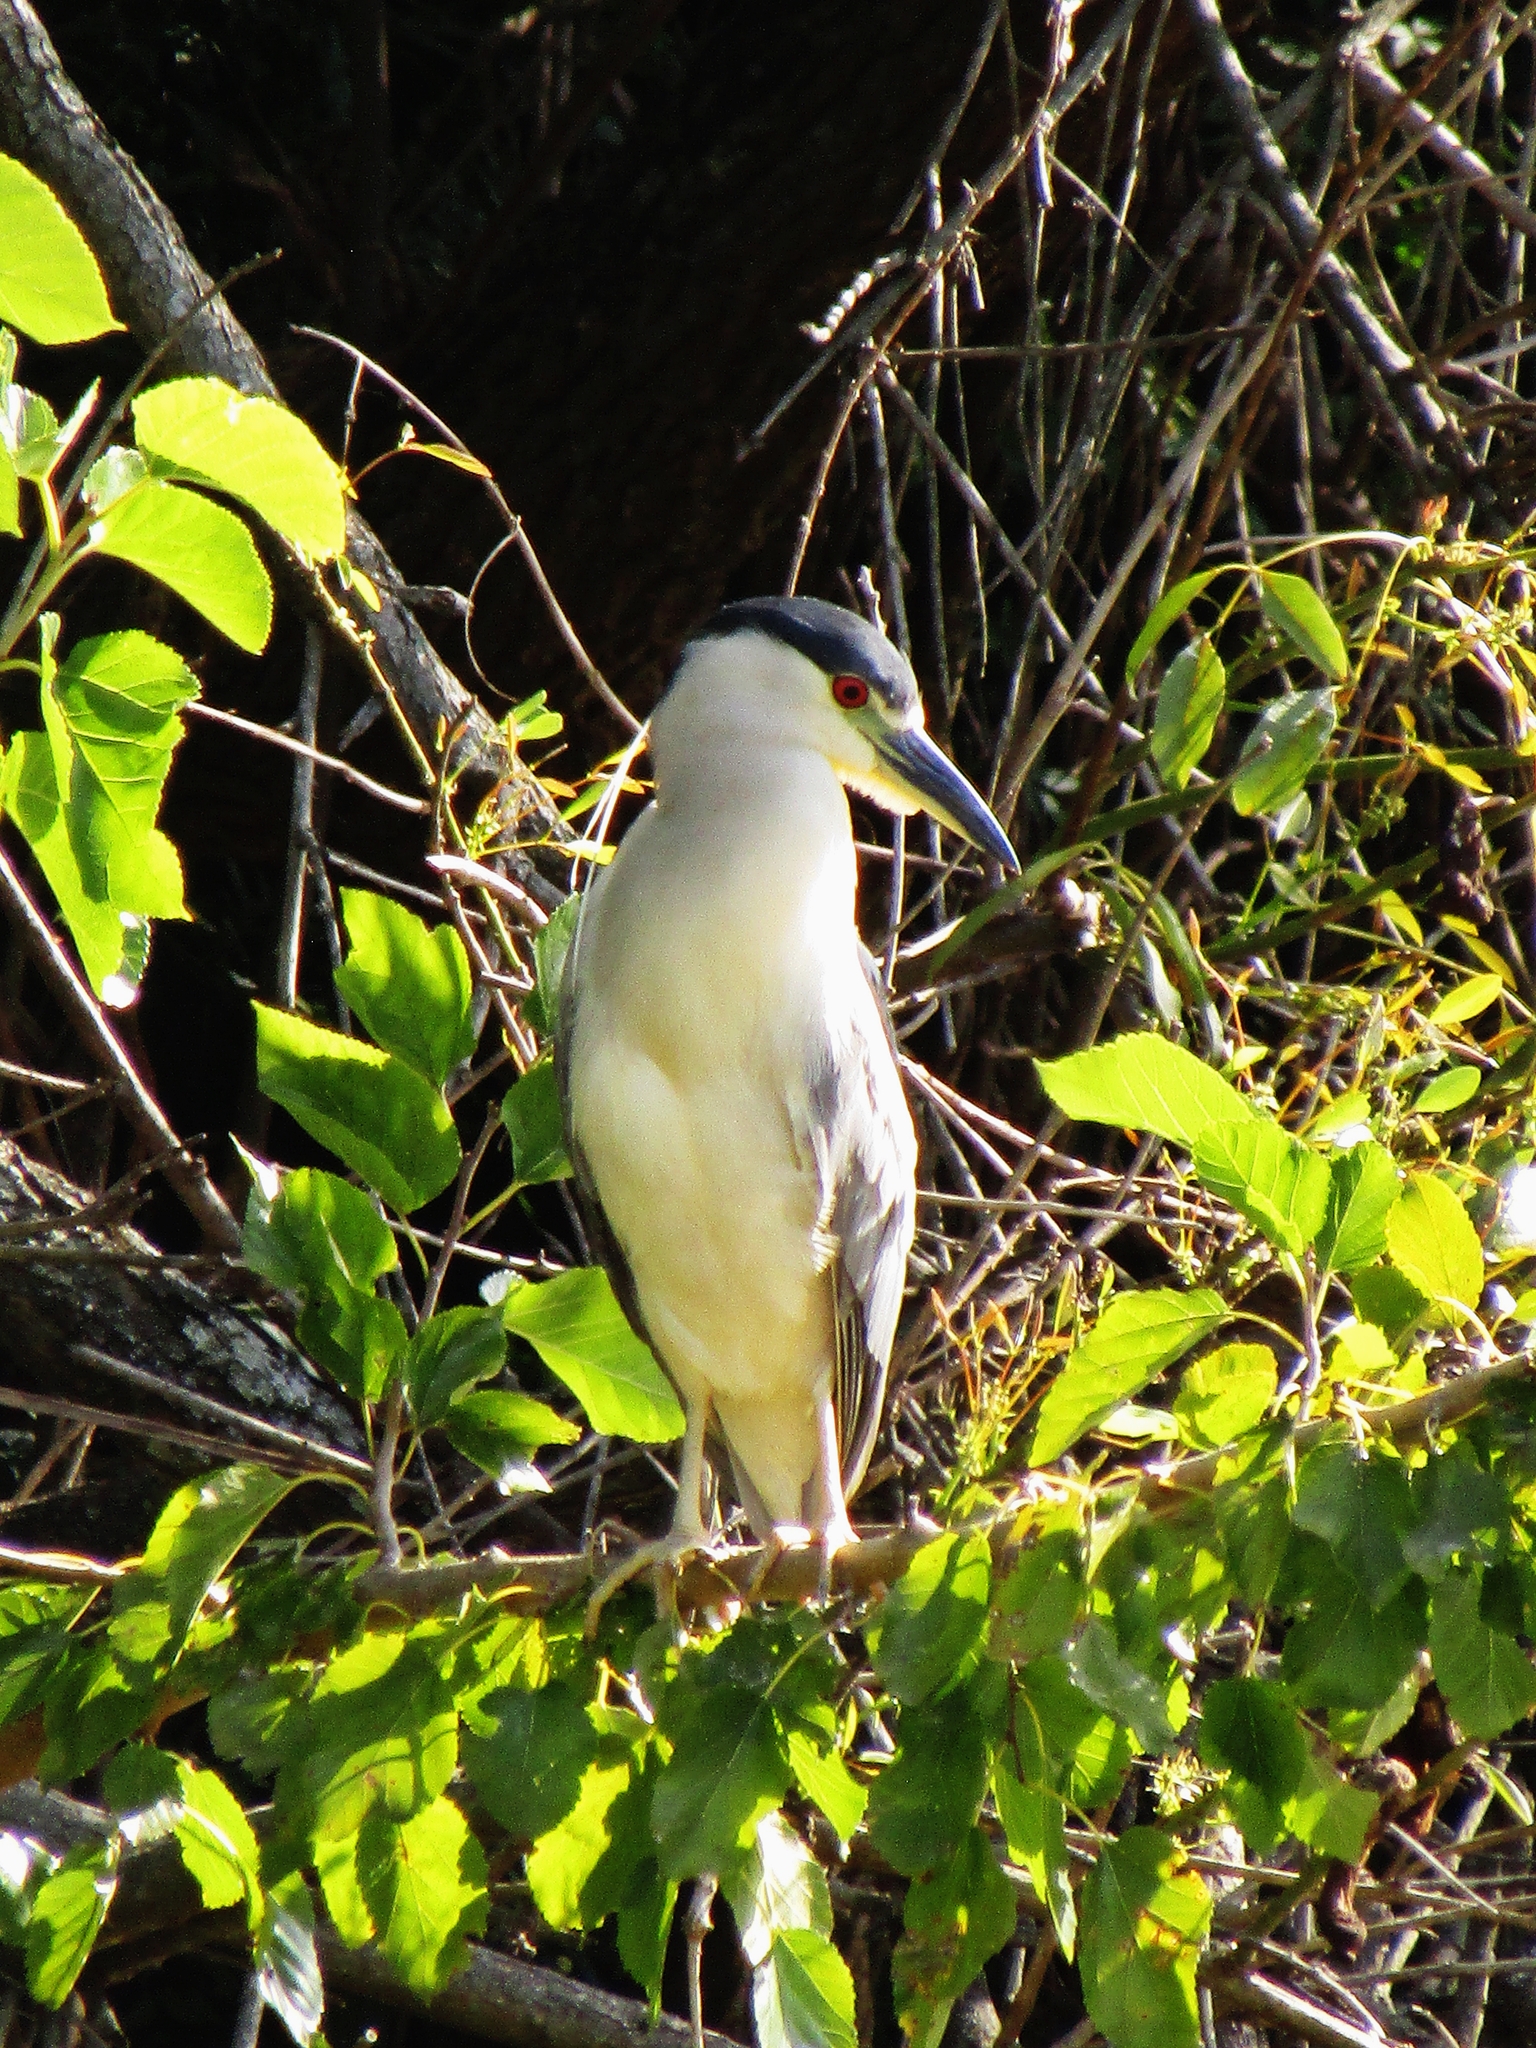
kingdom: Animalia
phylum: Chordata
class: Aves
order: Pelecaniformes
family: Ardeidae
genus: Nycticorax
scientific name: Nycticorax nycticorax
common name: Black-crowned night heron
